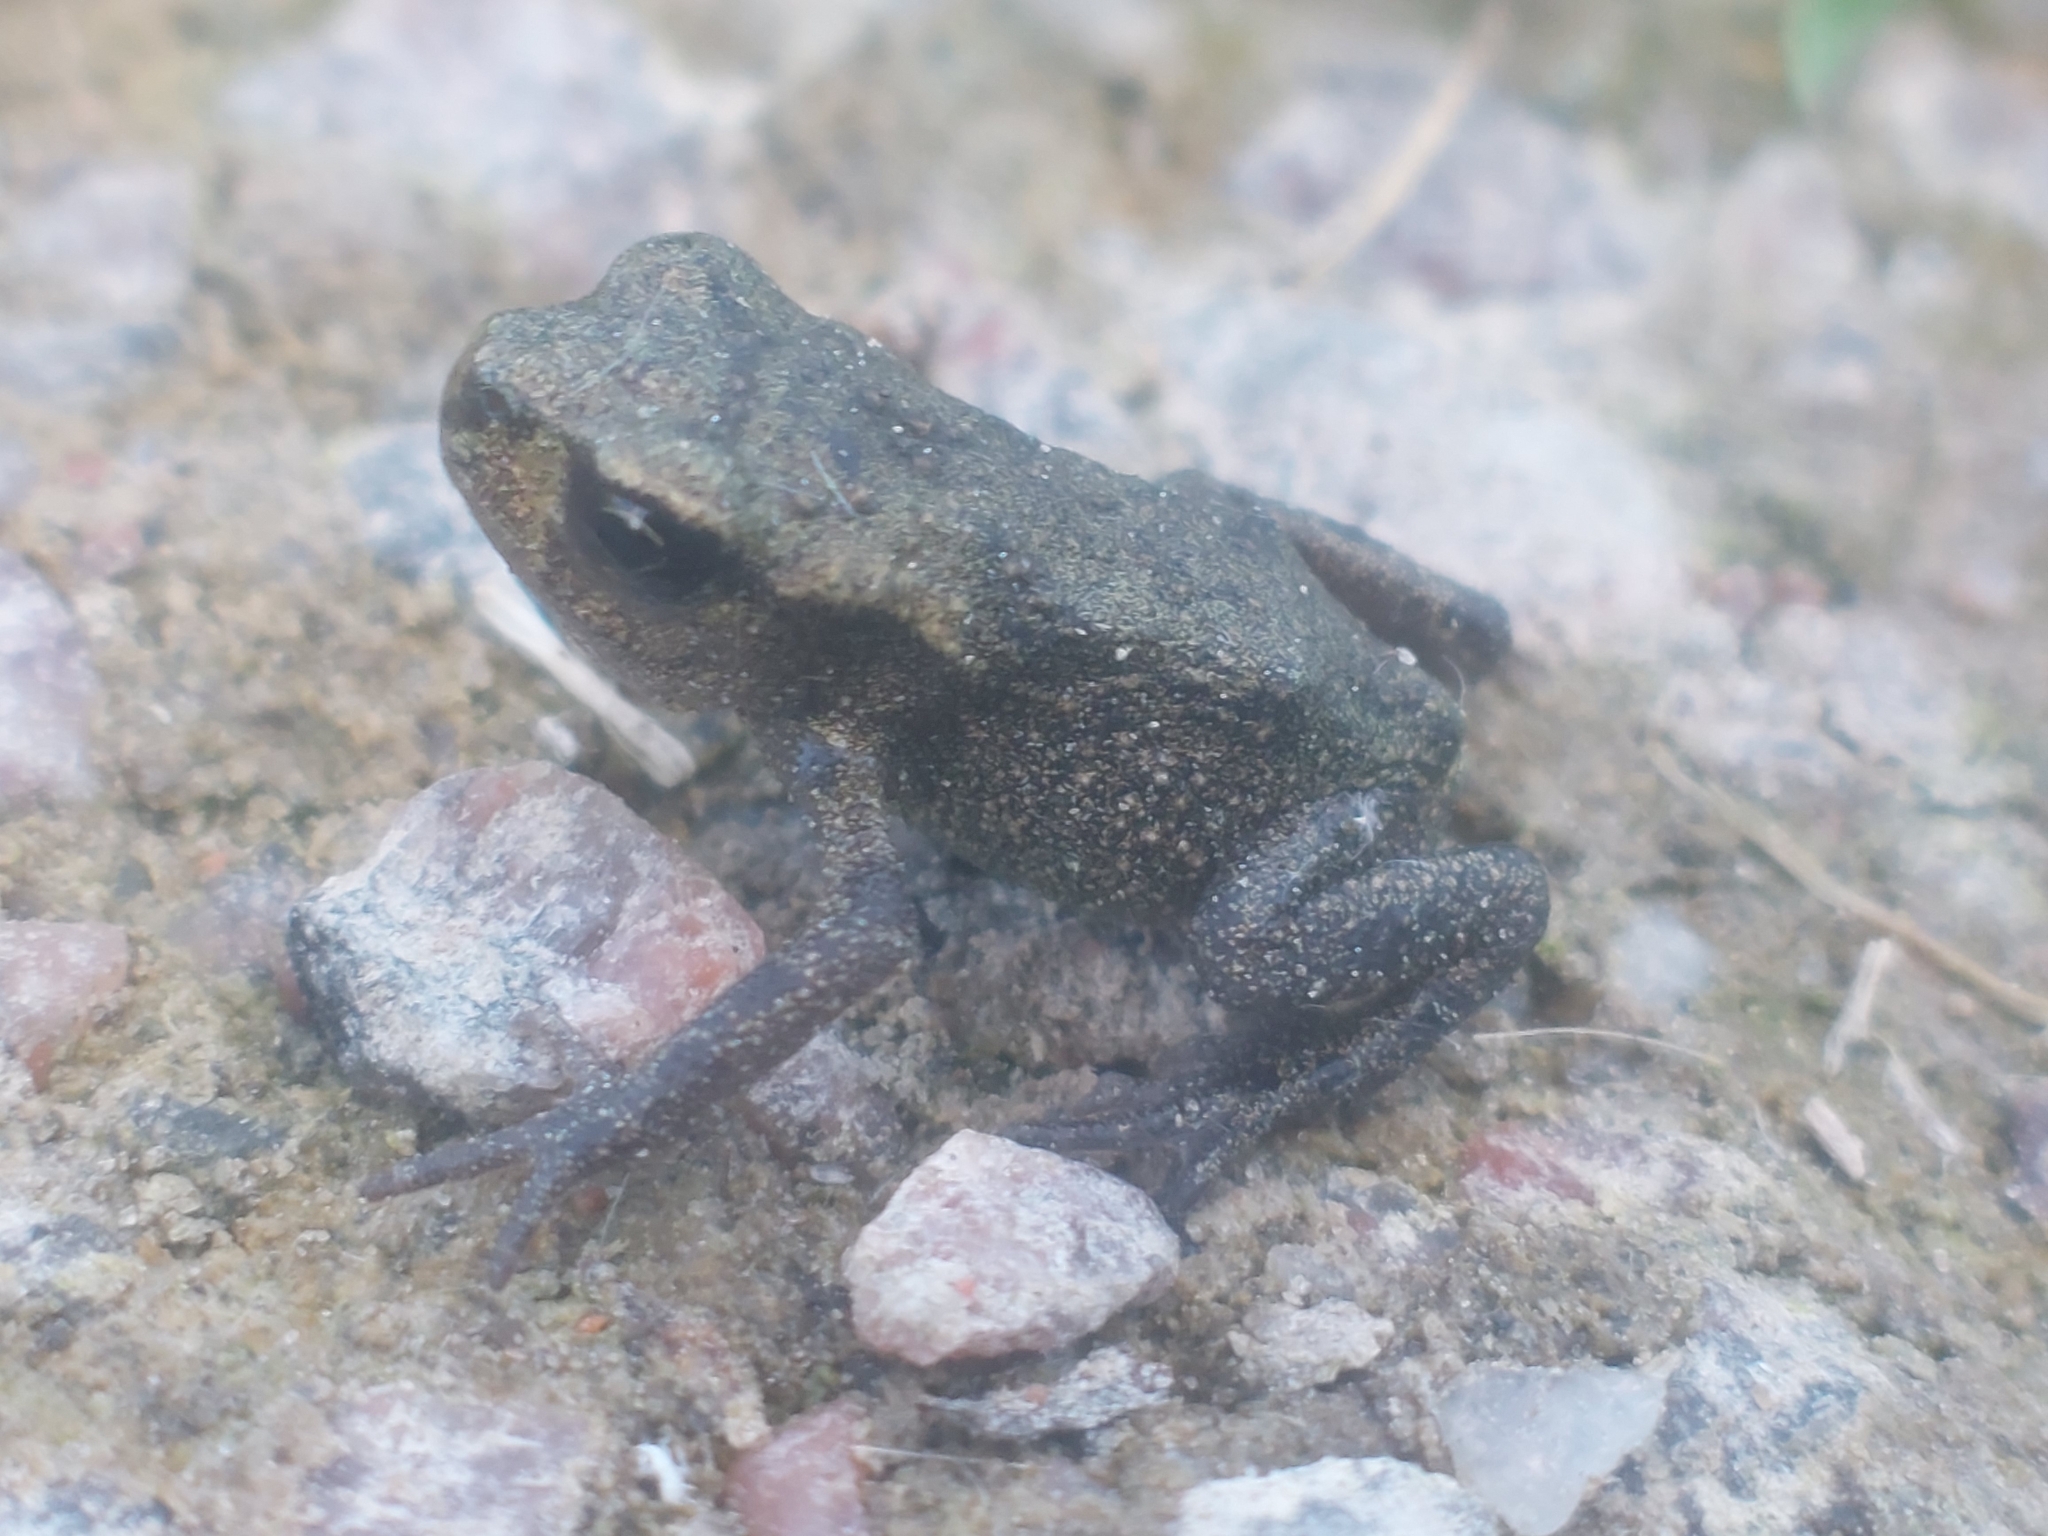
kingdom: Animalia
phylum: Chordata
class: Amphibia
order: Anura
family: Bufonidae
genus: Bufo
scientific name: Bufo bufo
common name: Common toad
